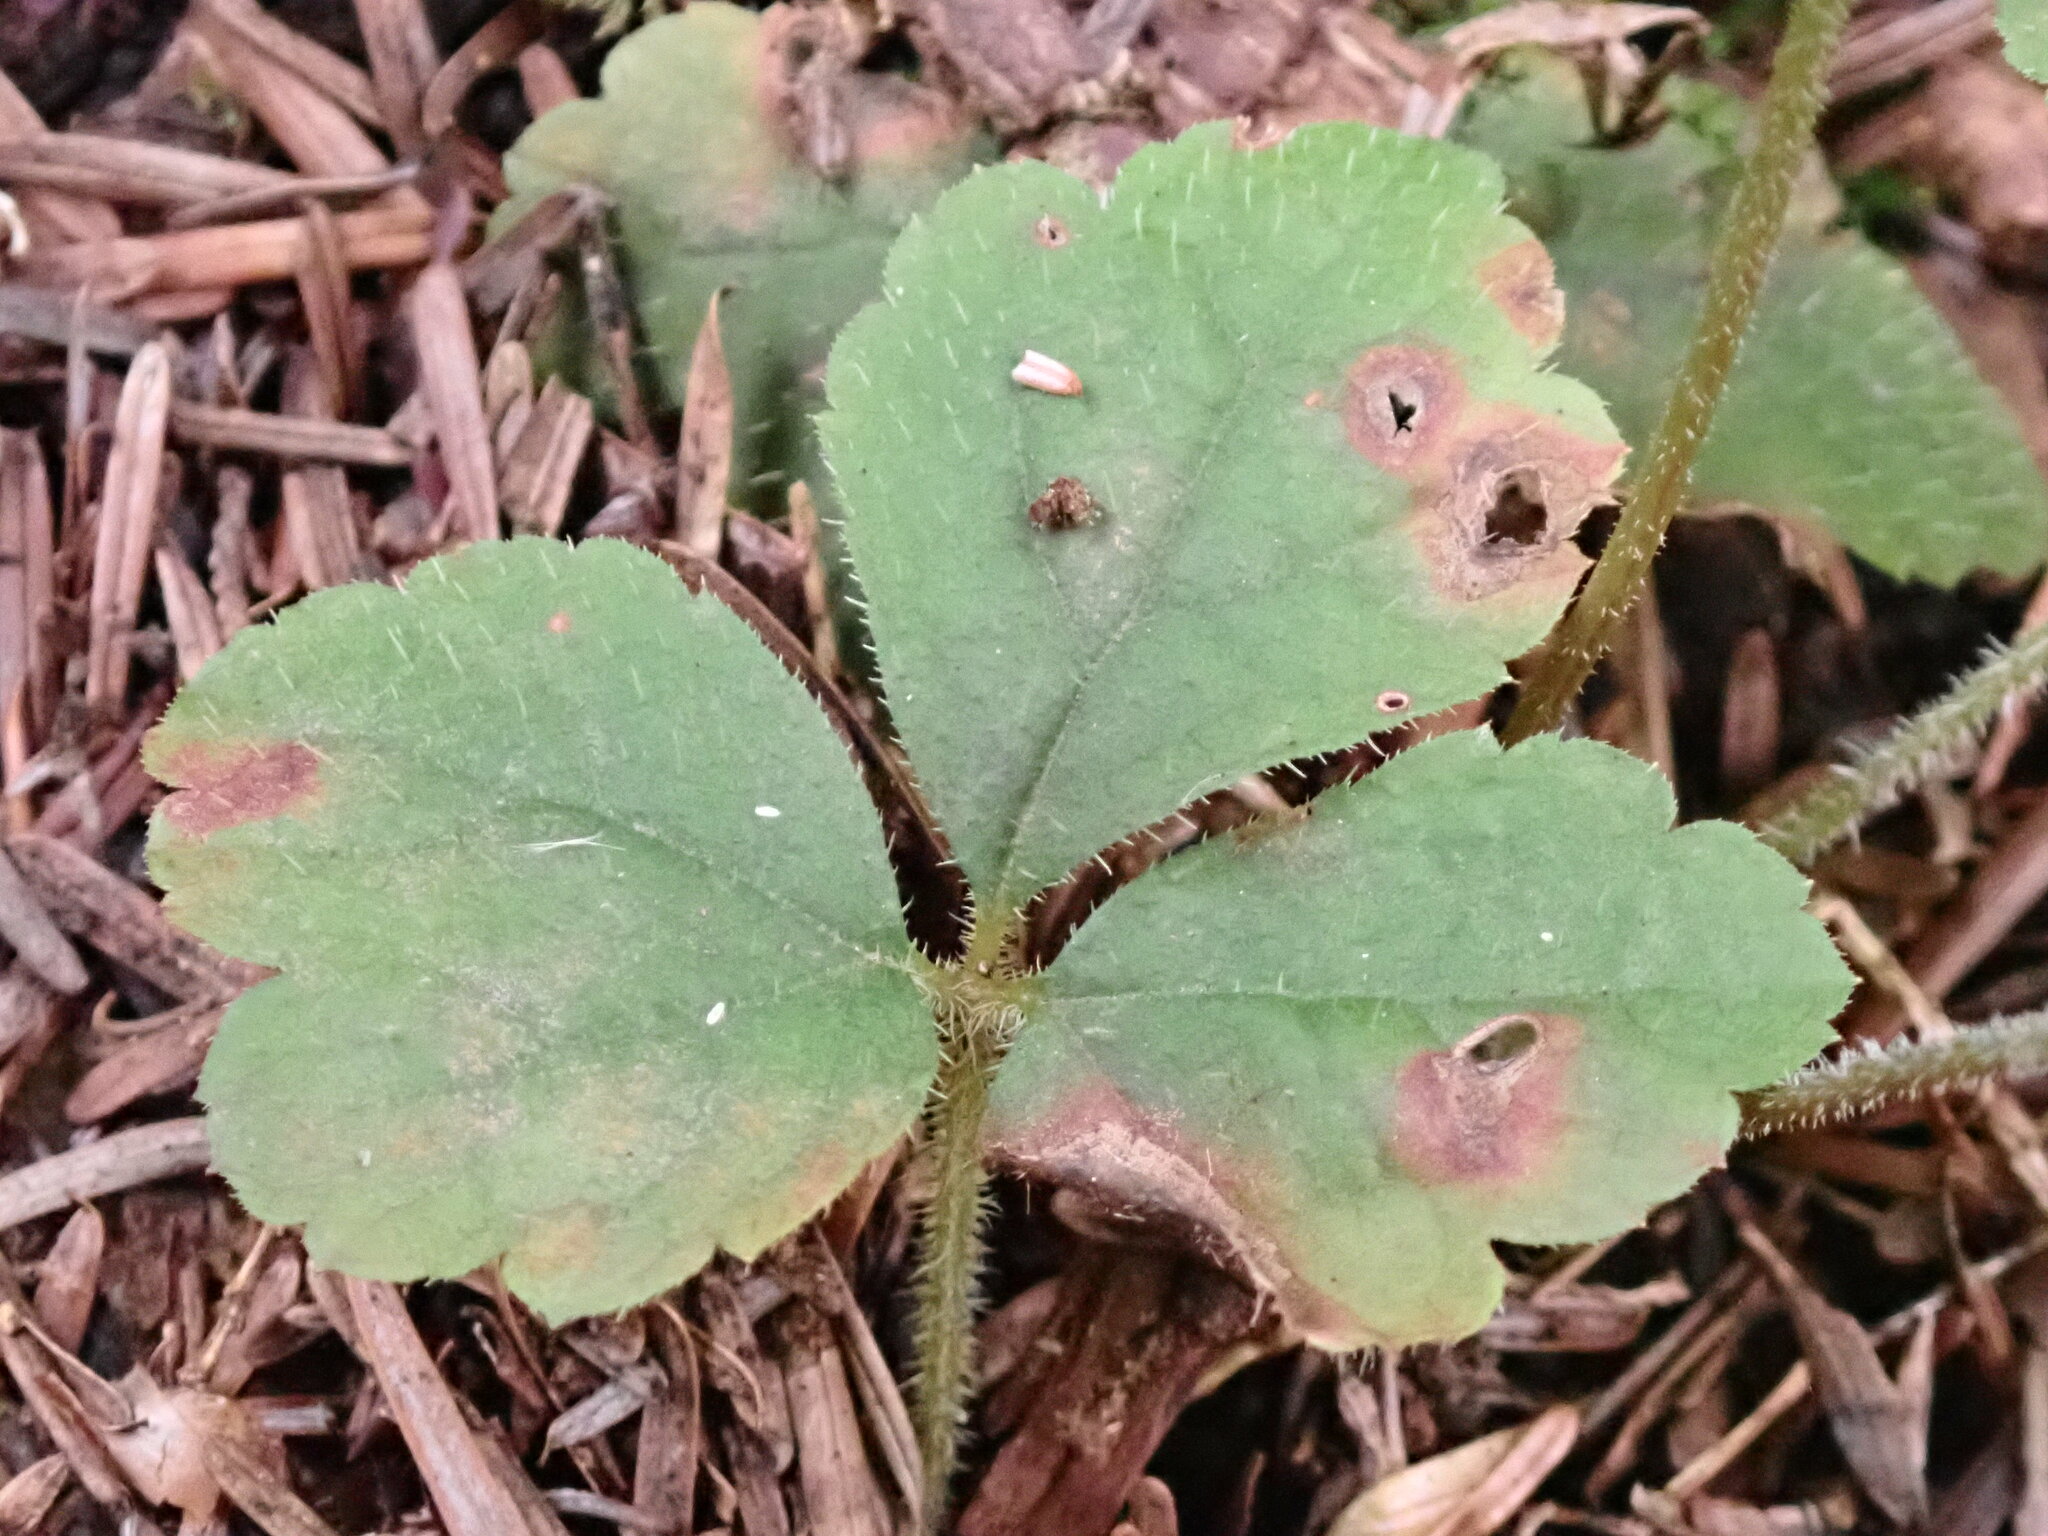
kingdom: Plantae
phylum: Tracheophyta
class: Magnoliopsida
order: Saxifragales
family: Saxifragaceae
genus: Tiarella
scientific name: Tiarella trifoliata
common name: Sugar-scoop
